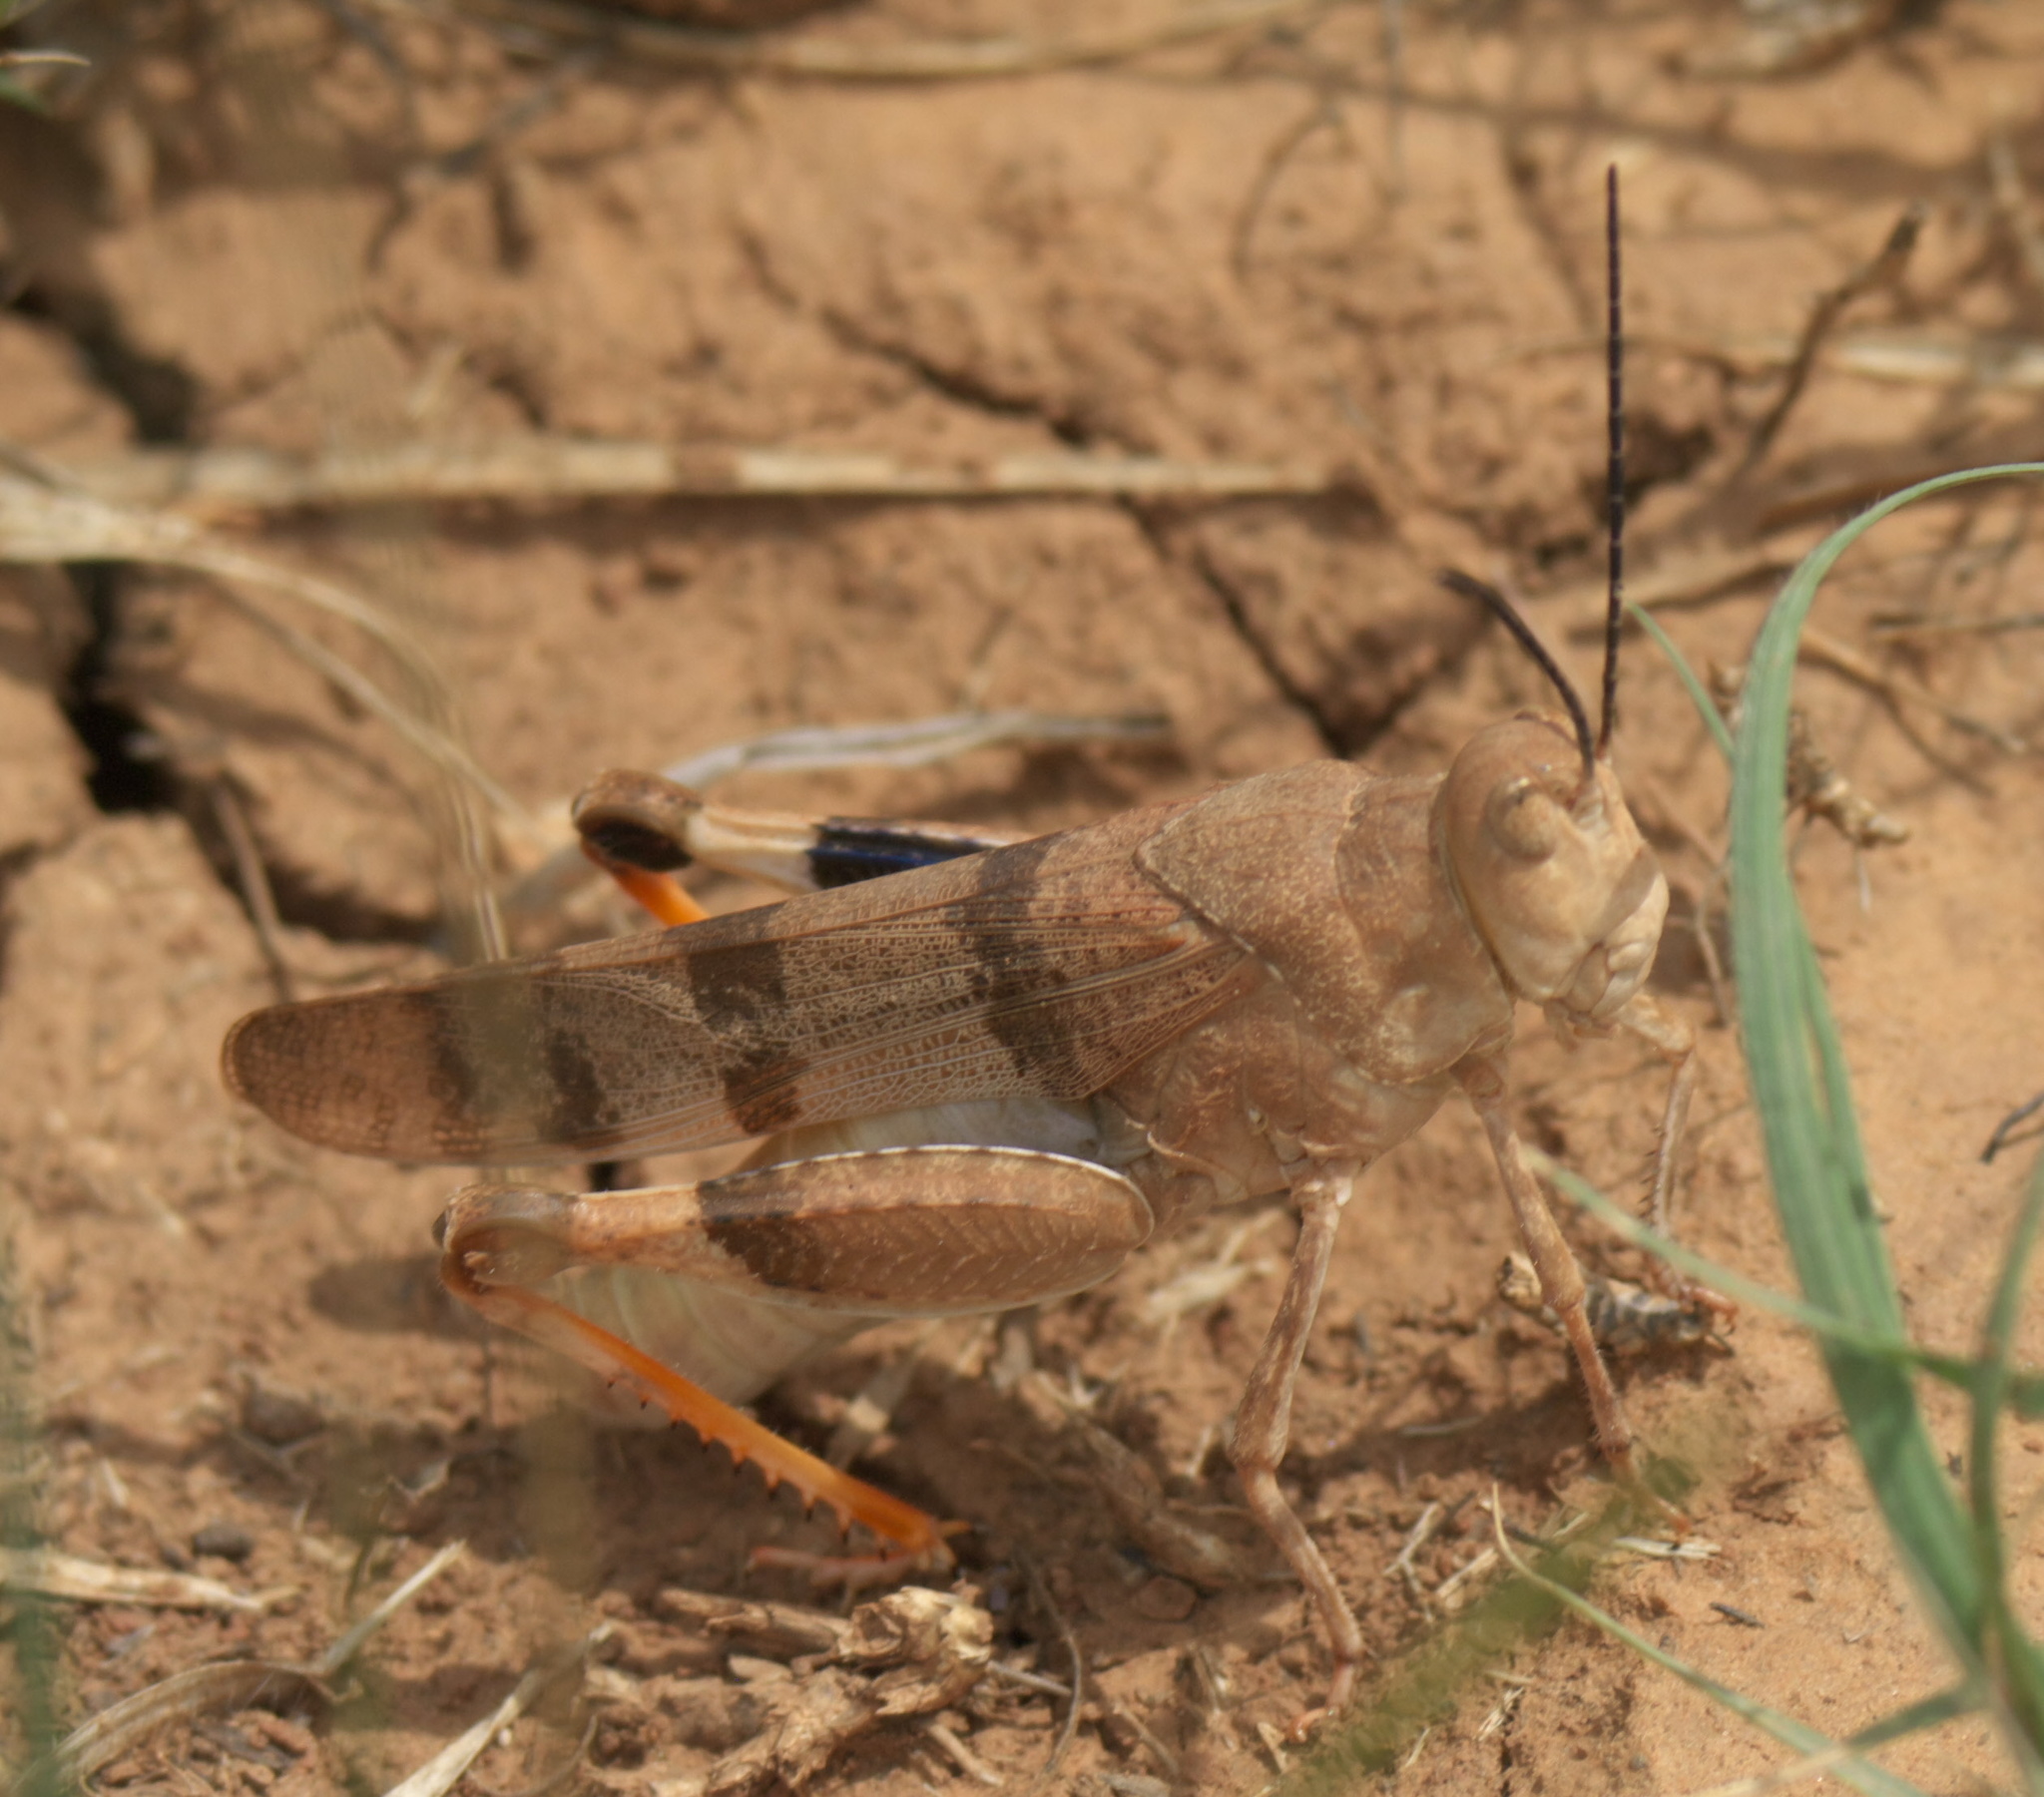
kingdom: Animalia
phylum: Arthropoda
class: Insecta
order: Orthoptera
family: Acrididae
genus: Hadrotettix
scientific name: Hadrotettix trifasciatus
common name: Threebanded grasshopper
